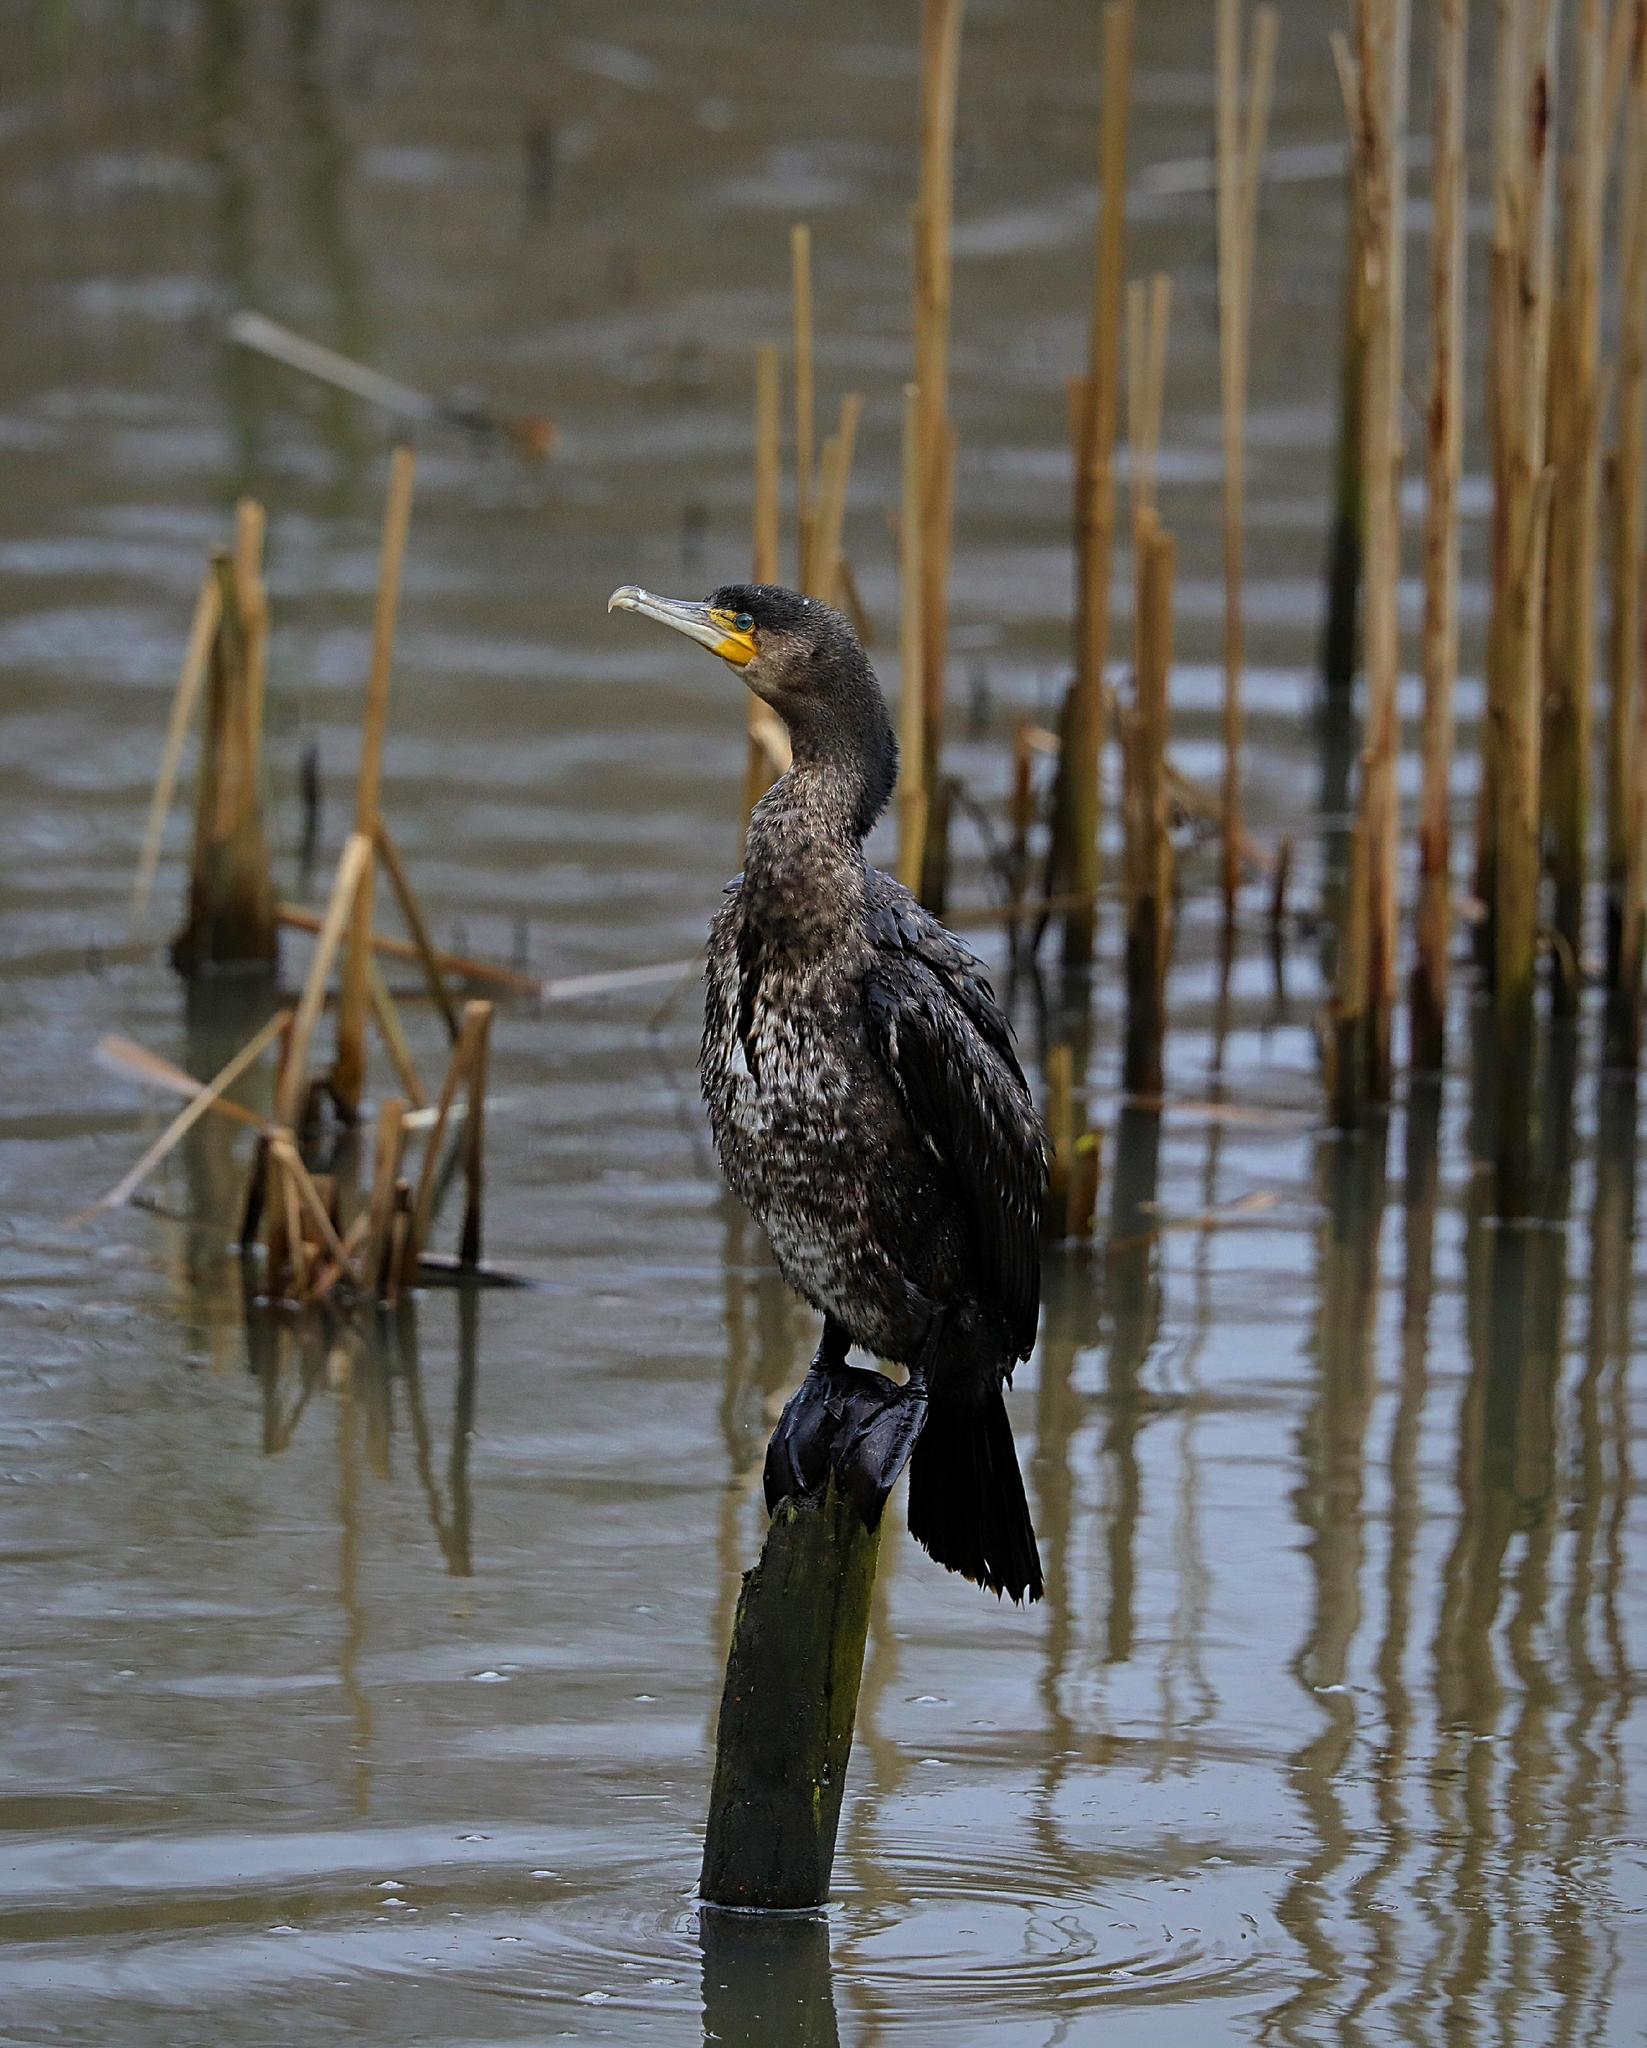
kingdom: Animalia
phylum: Chordata
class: Aves
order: Suliformes
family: Phalacrocoracidae
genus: Phalacrocorax
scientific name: Phalacrocorax carbo
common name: Great cormorant
